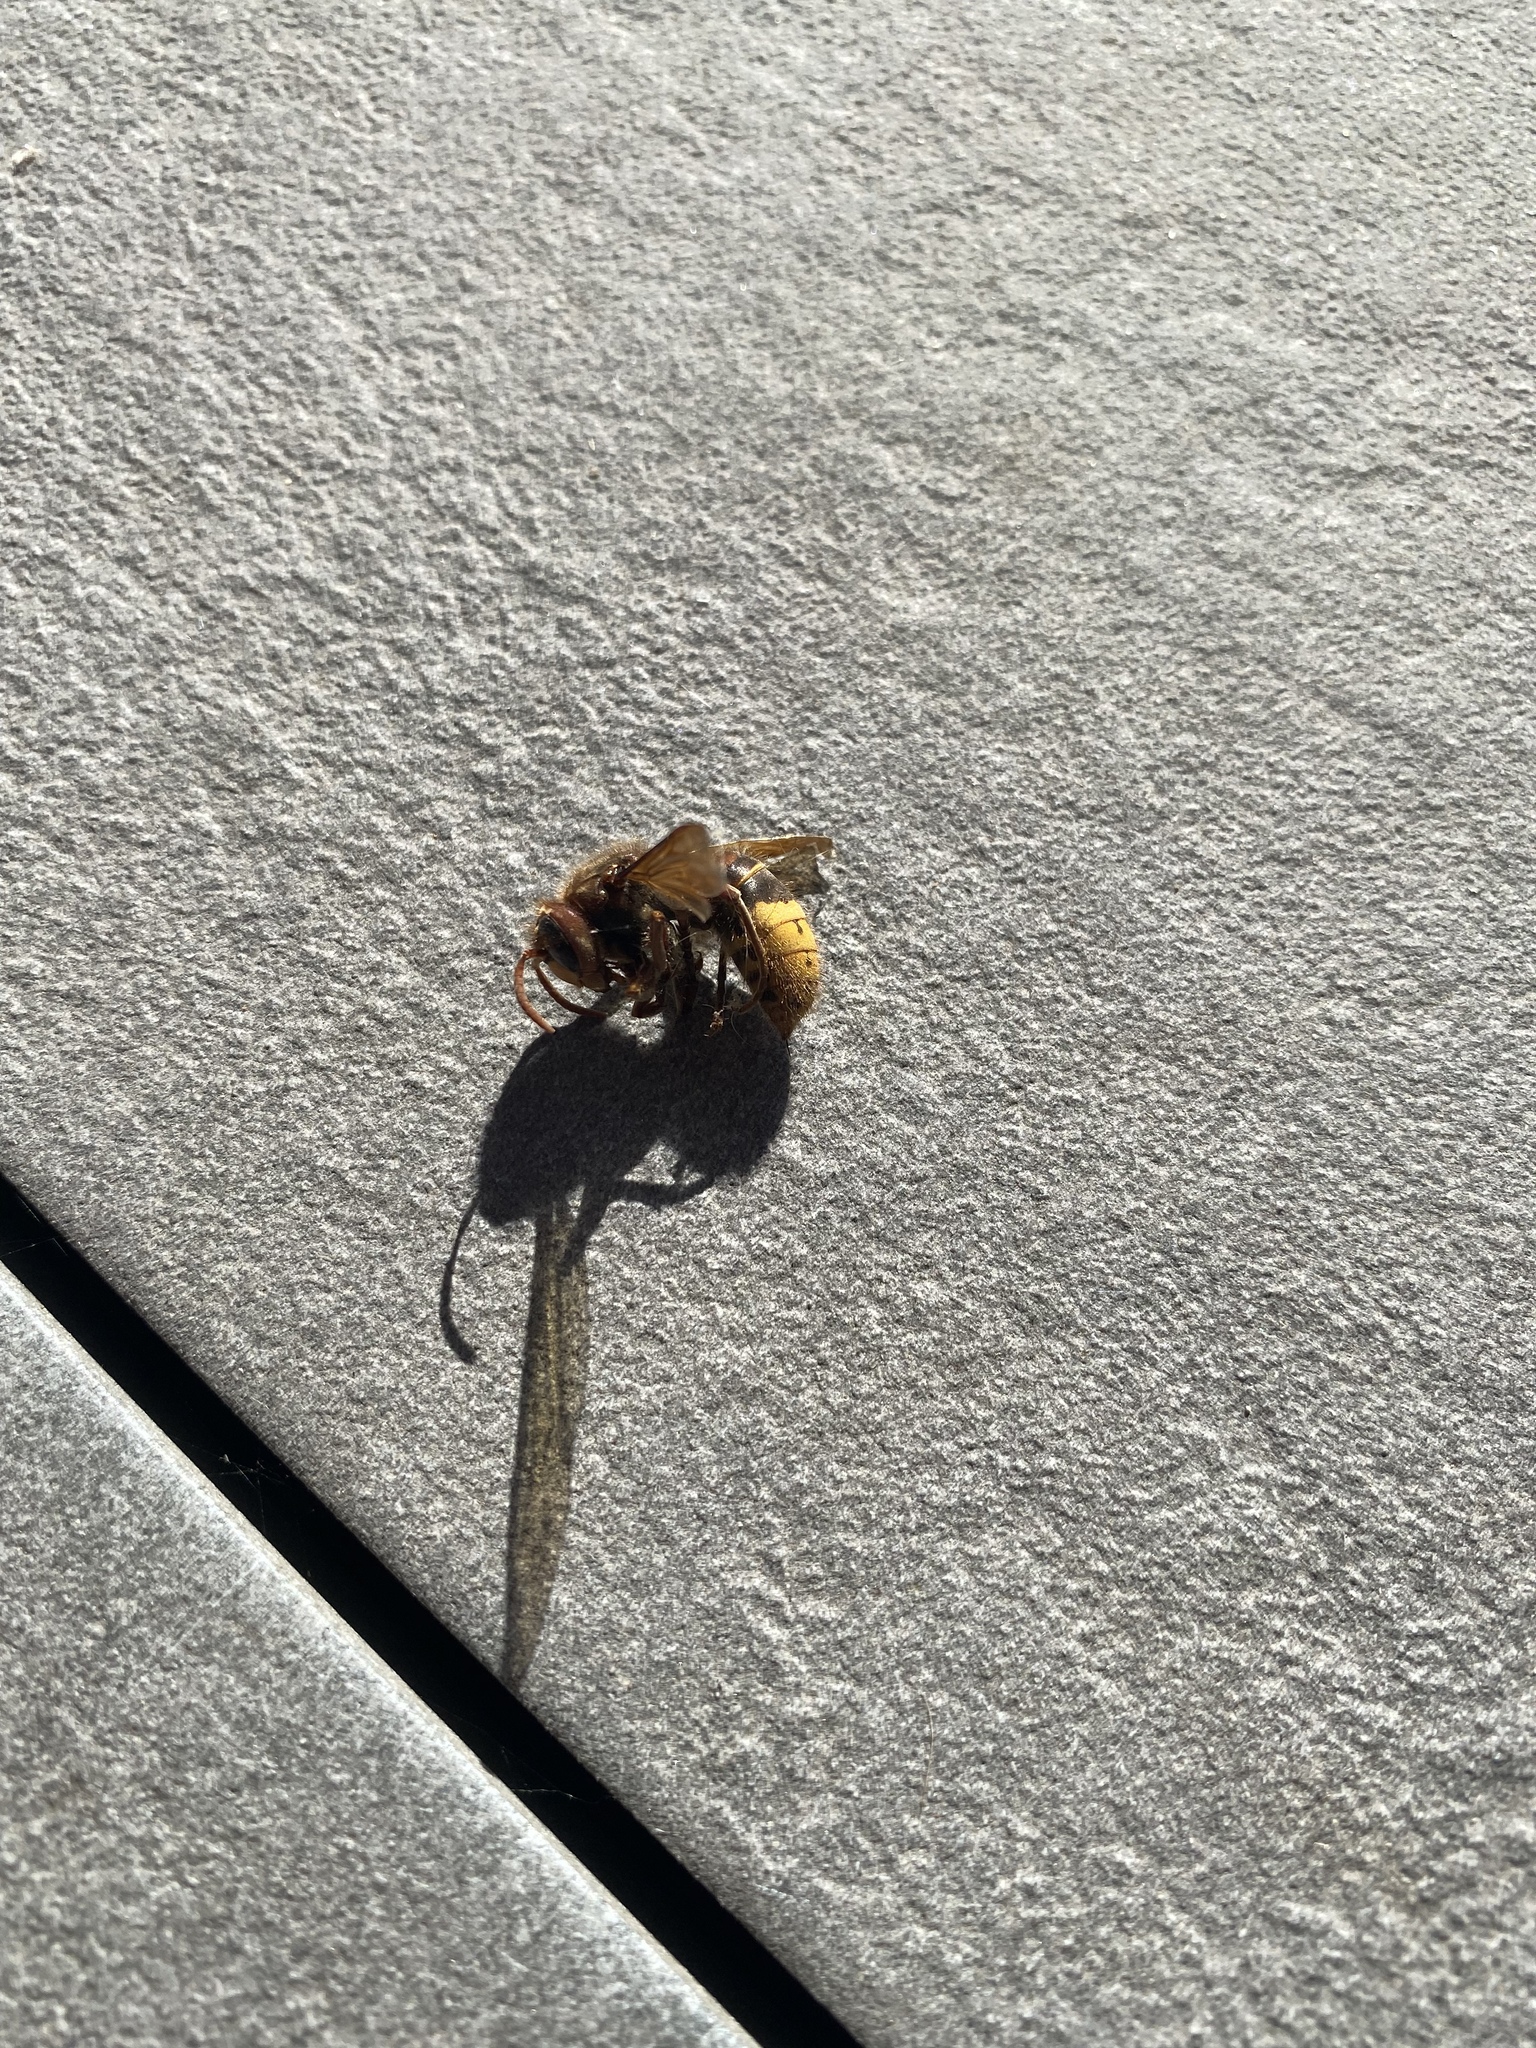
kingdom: Animalia
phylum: Arthropoda
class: Insecta
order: Hymenoptera
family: Vespidae
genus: Vespa
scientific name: Vespa crabro
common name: Hornet
